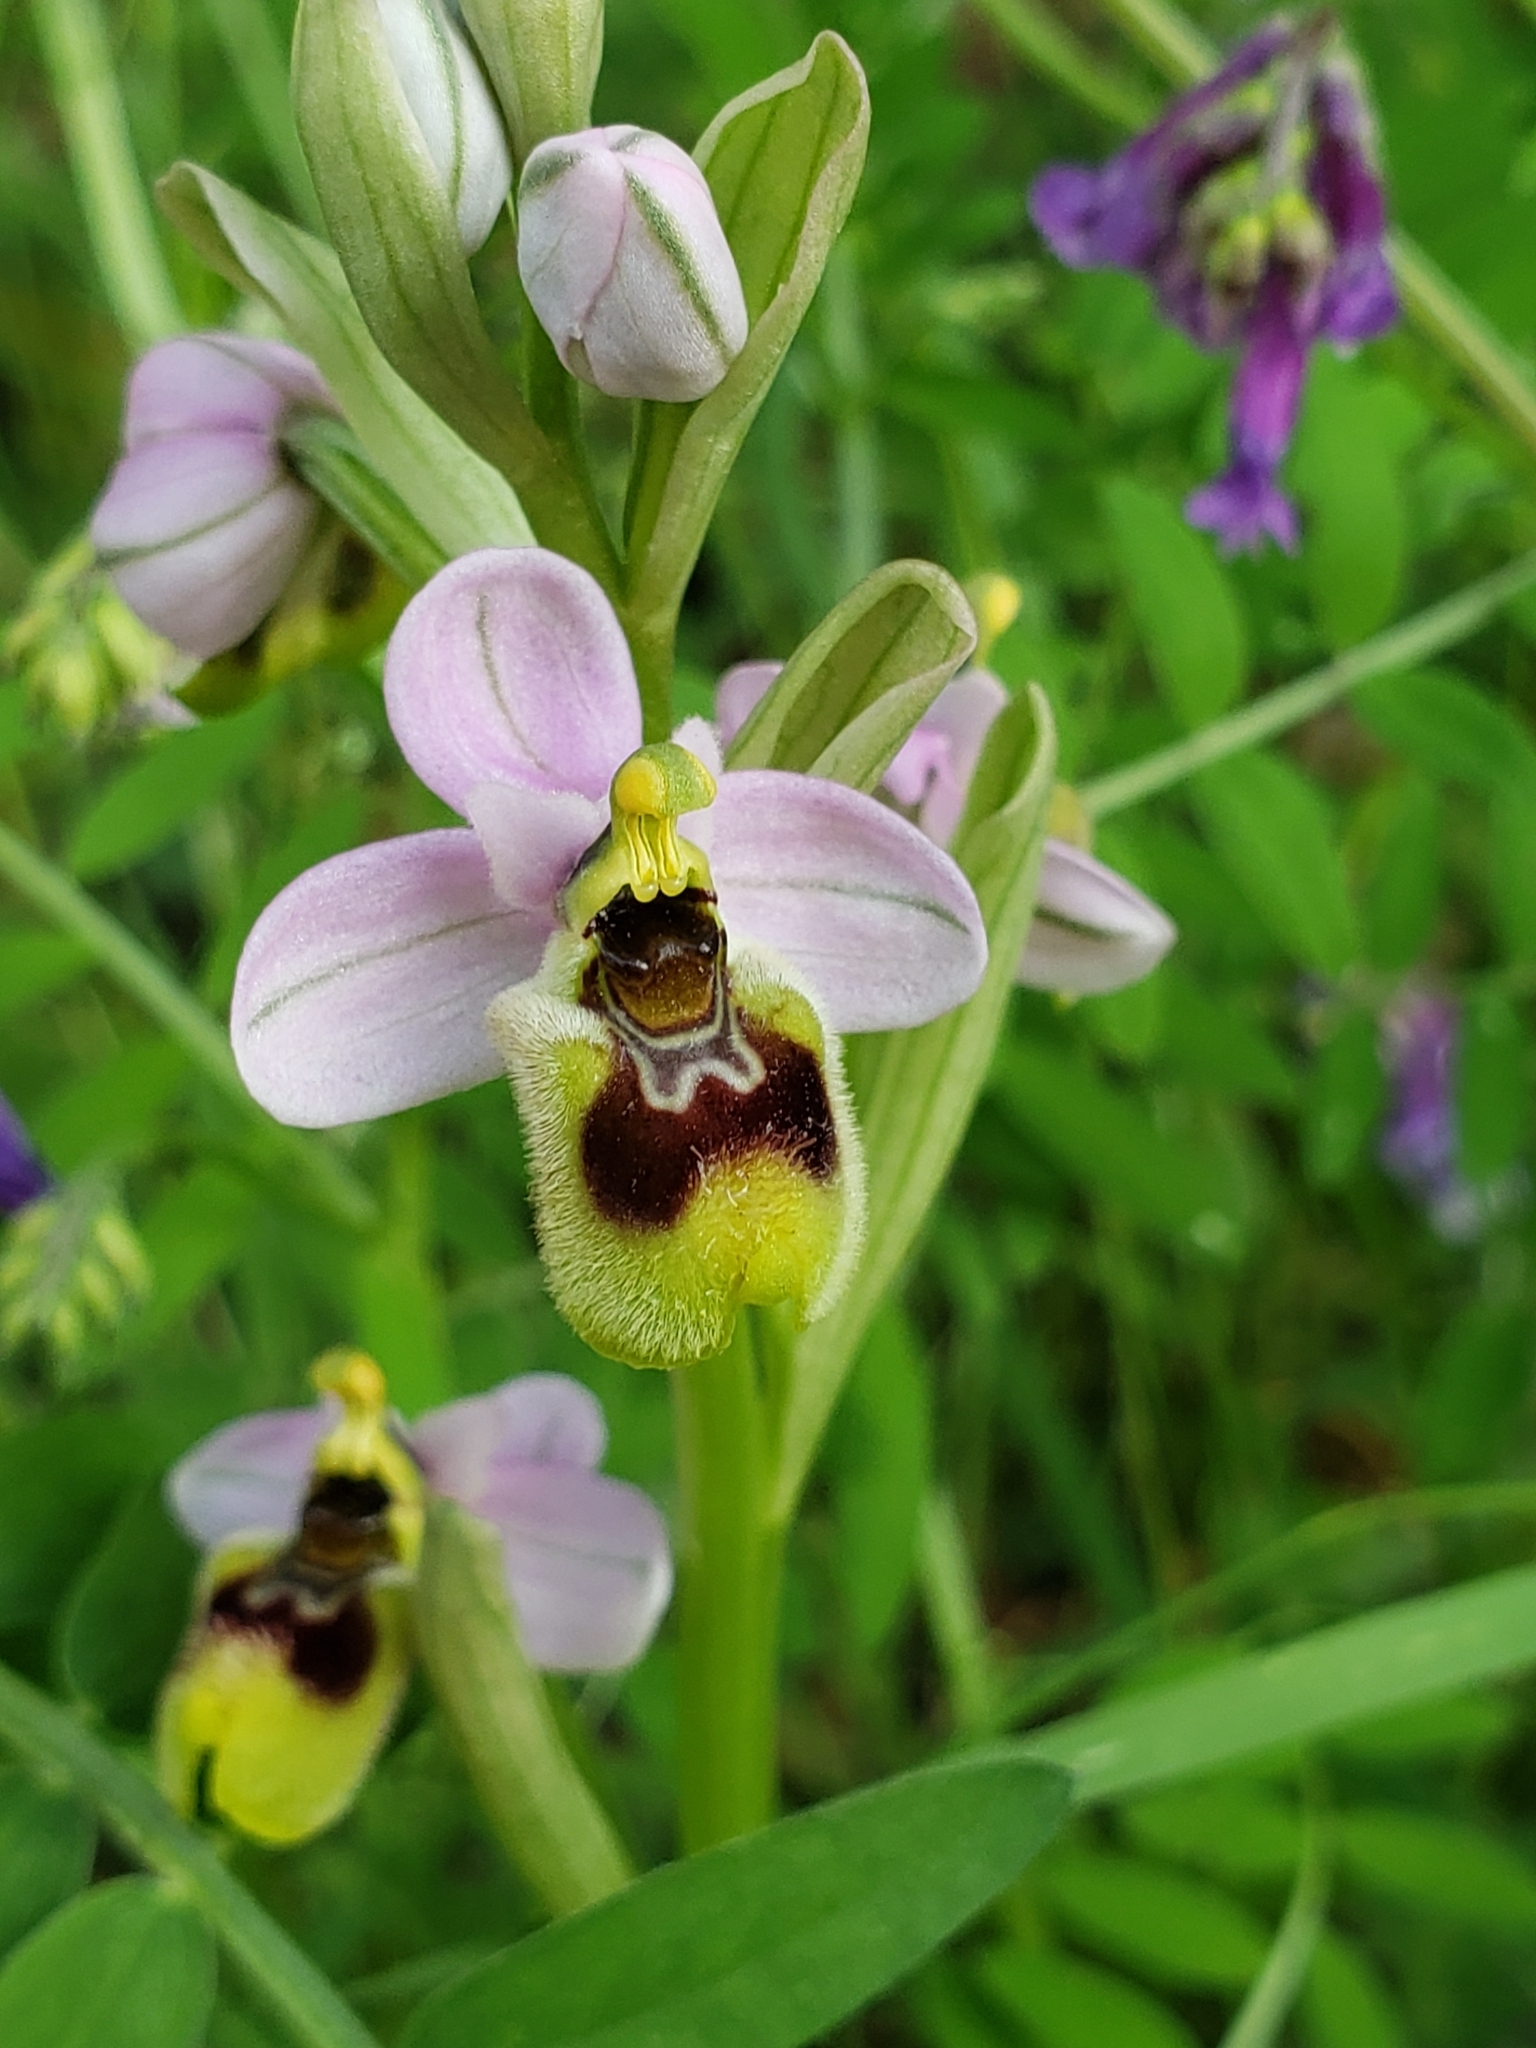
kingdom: Plantae
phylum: Tracheophyta
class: Liliopsida
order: Asparagales
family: Orchidaceae
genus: Ophrys
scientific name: Ophrys tenthredinifera
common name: Sawfly orchid
